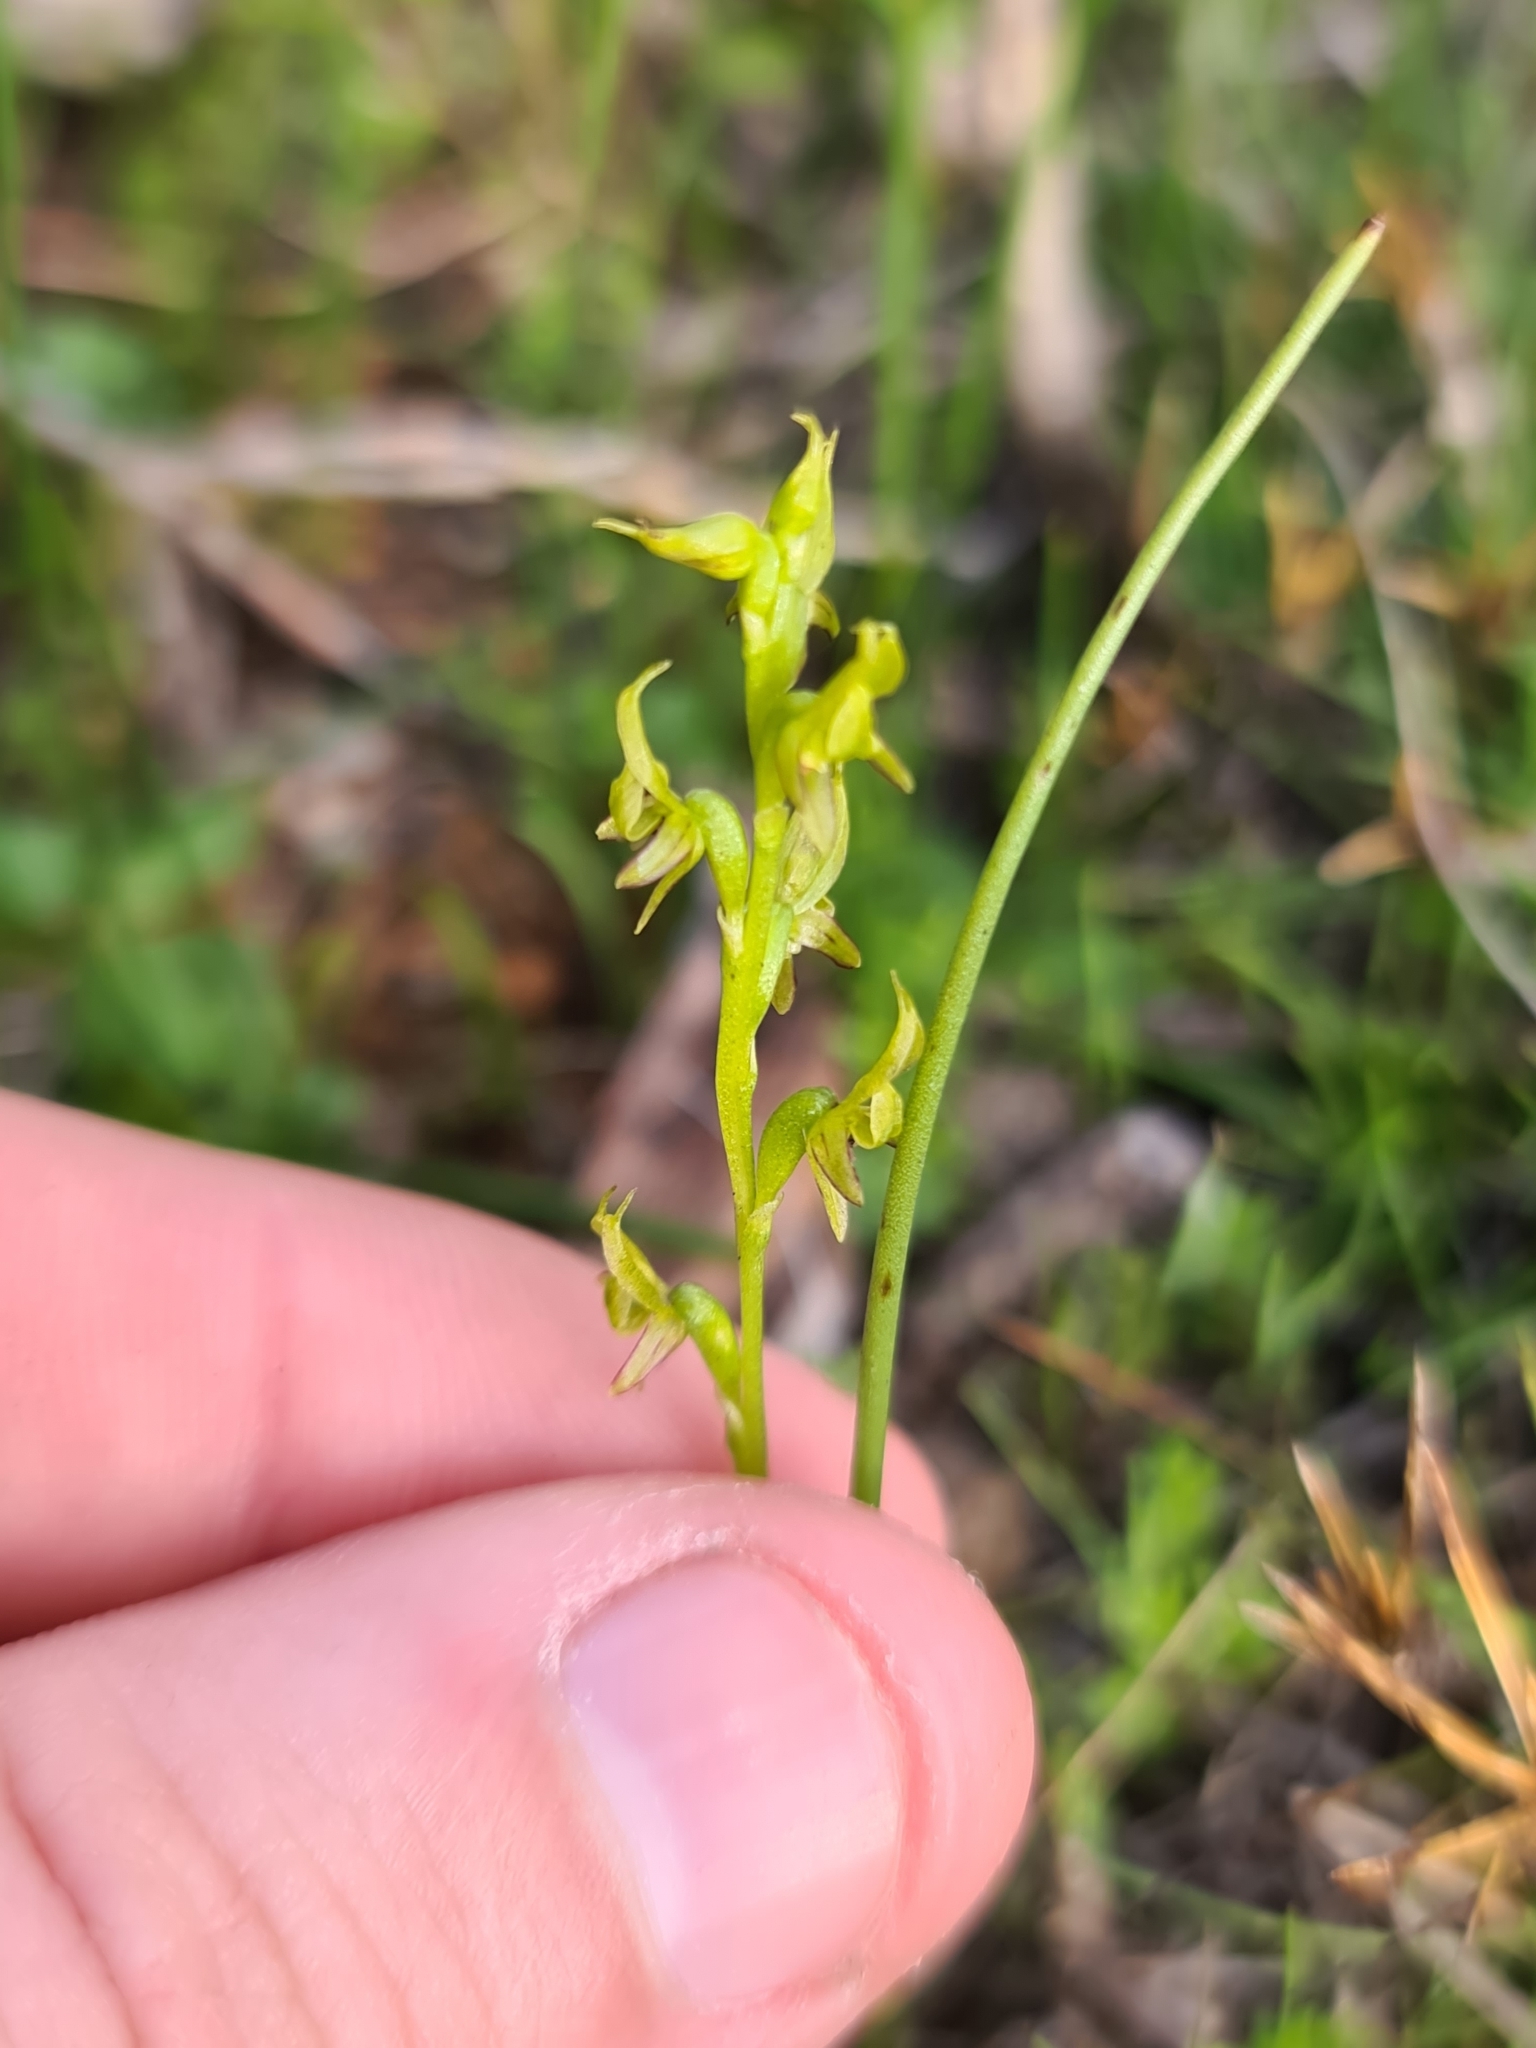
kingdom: Plantae
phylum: Tracheophyta
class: Liliopsida
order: Asparagales
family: Orchidaceae
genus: Prasophyllum
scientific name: Prasophyllum gracile
